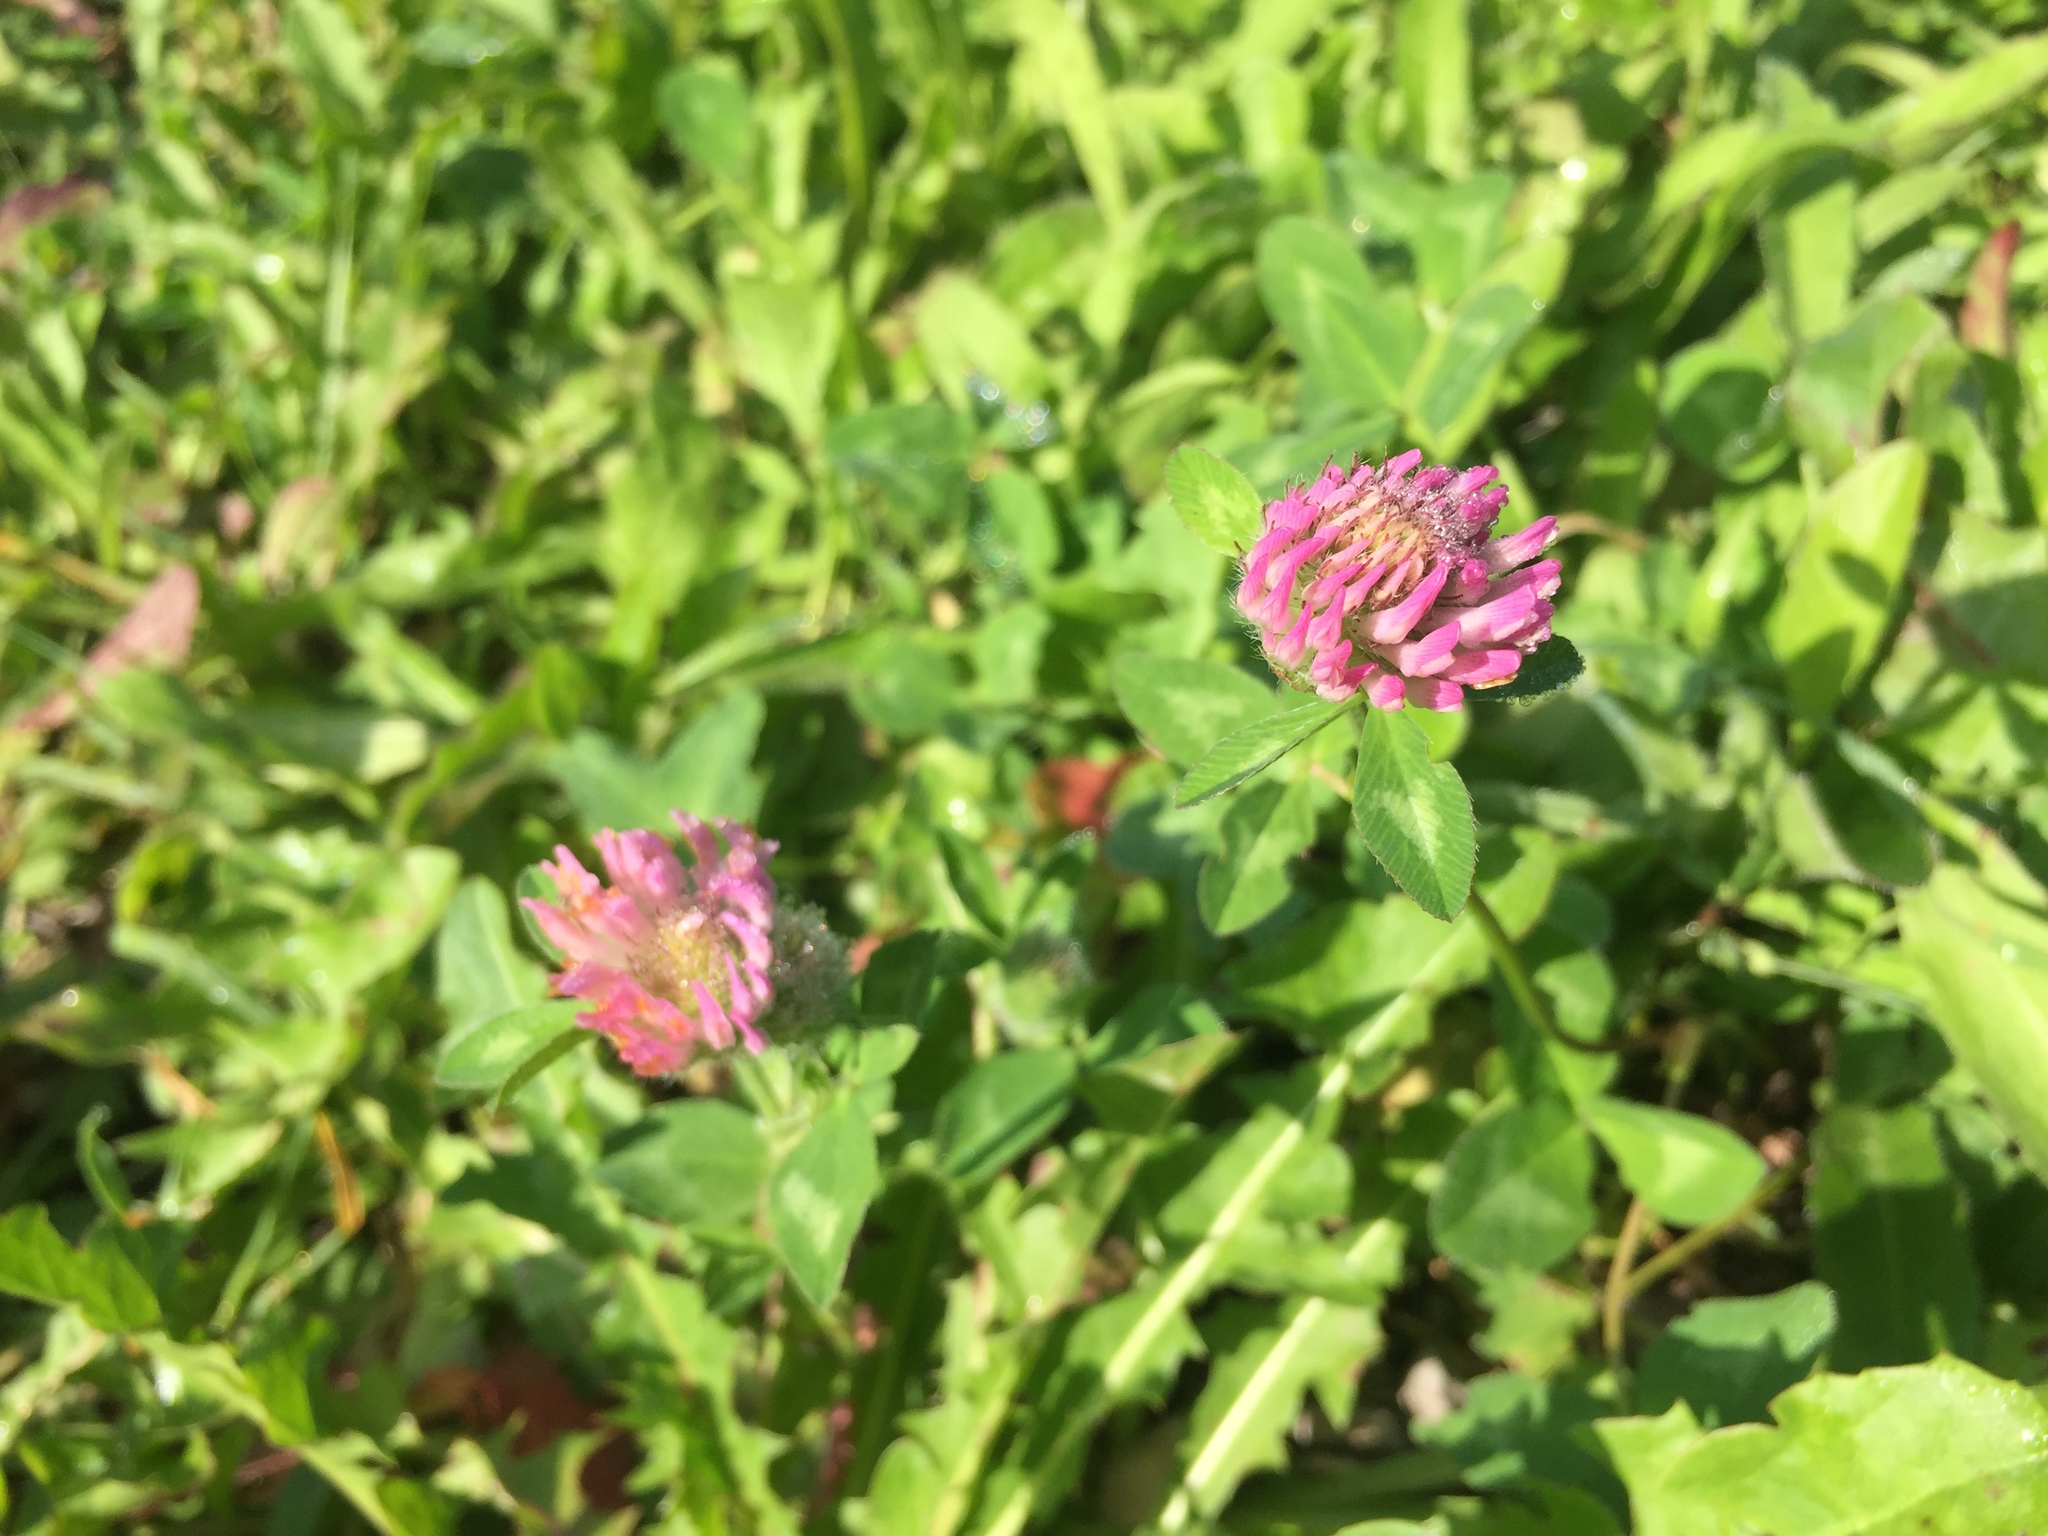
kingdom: Plantae
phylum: Tracheophyta
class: Magnoliopsida
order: Fabales
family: Fabaceae
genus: Trifolium
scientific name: Trifolium pratense
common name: Red clover
